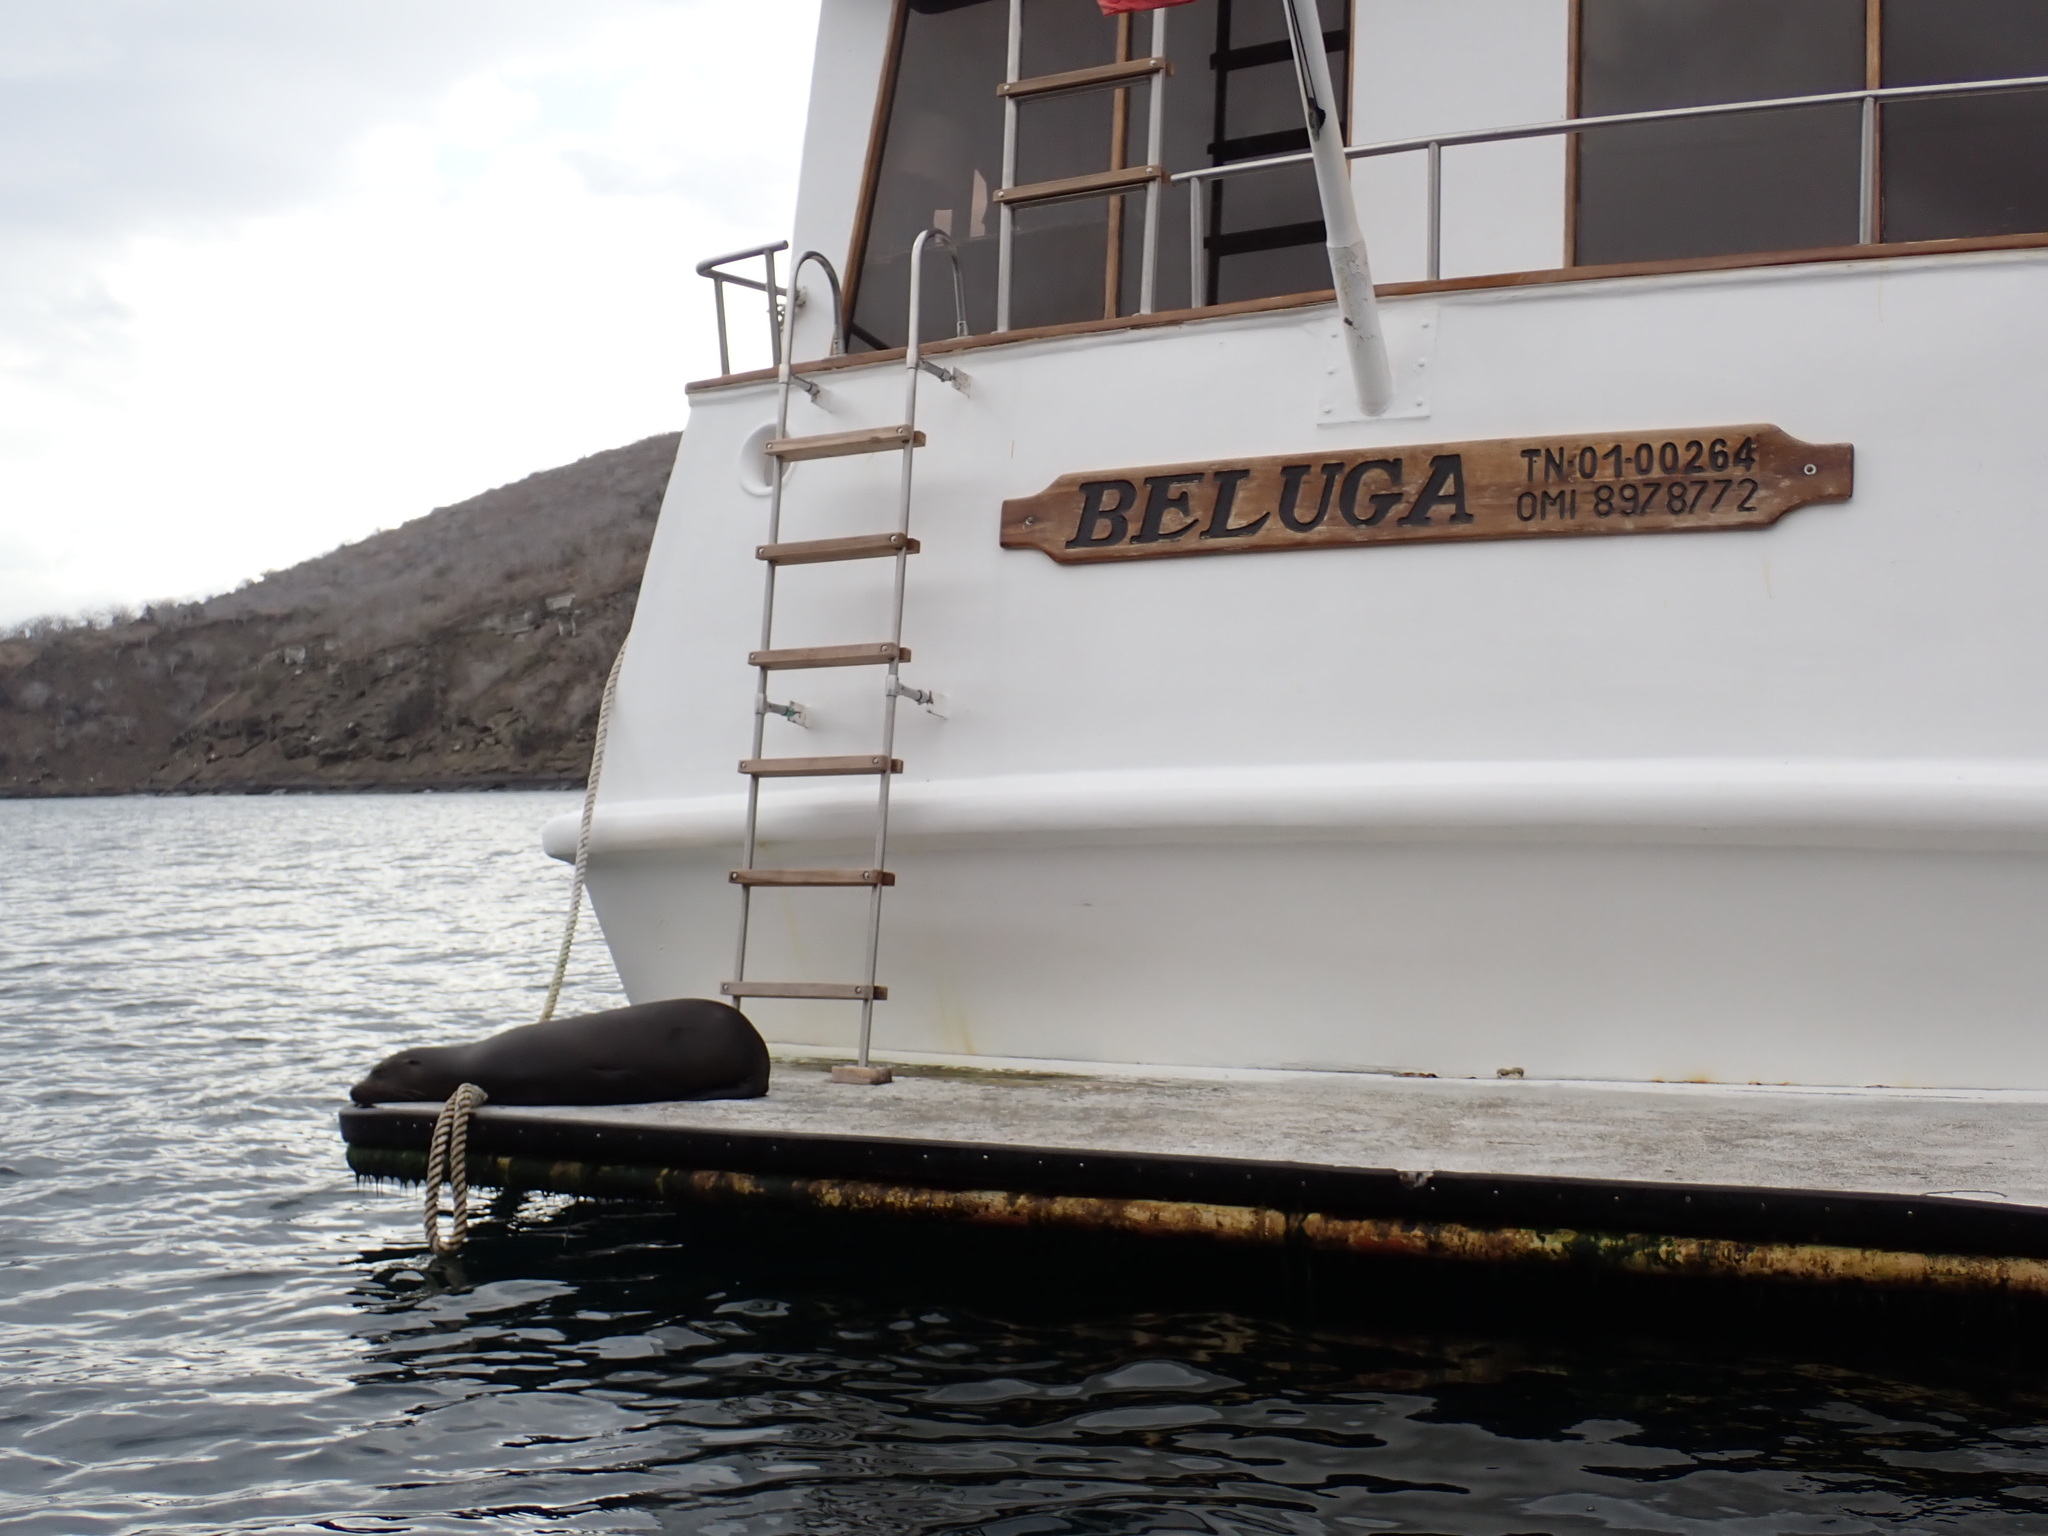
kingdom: Animalia
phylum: Chordata
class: Mammalia
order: Carnivora
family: Otariidae
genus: Zalophus
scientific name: Zalophus wollebaeki
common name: Galapagos sea lion
